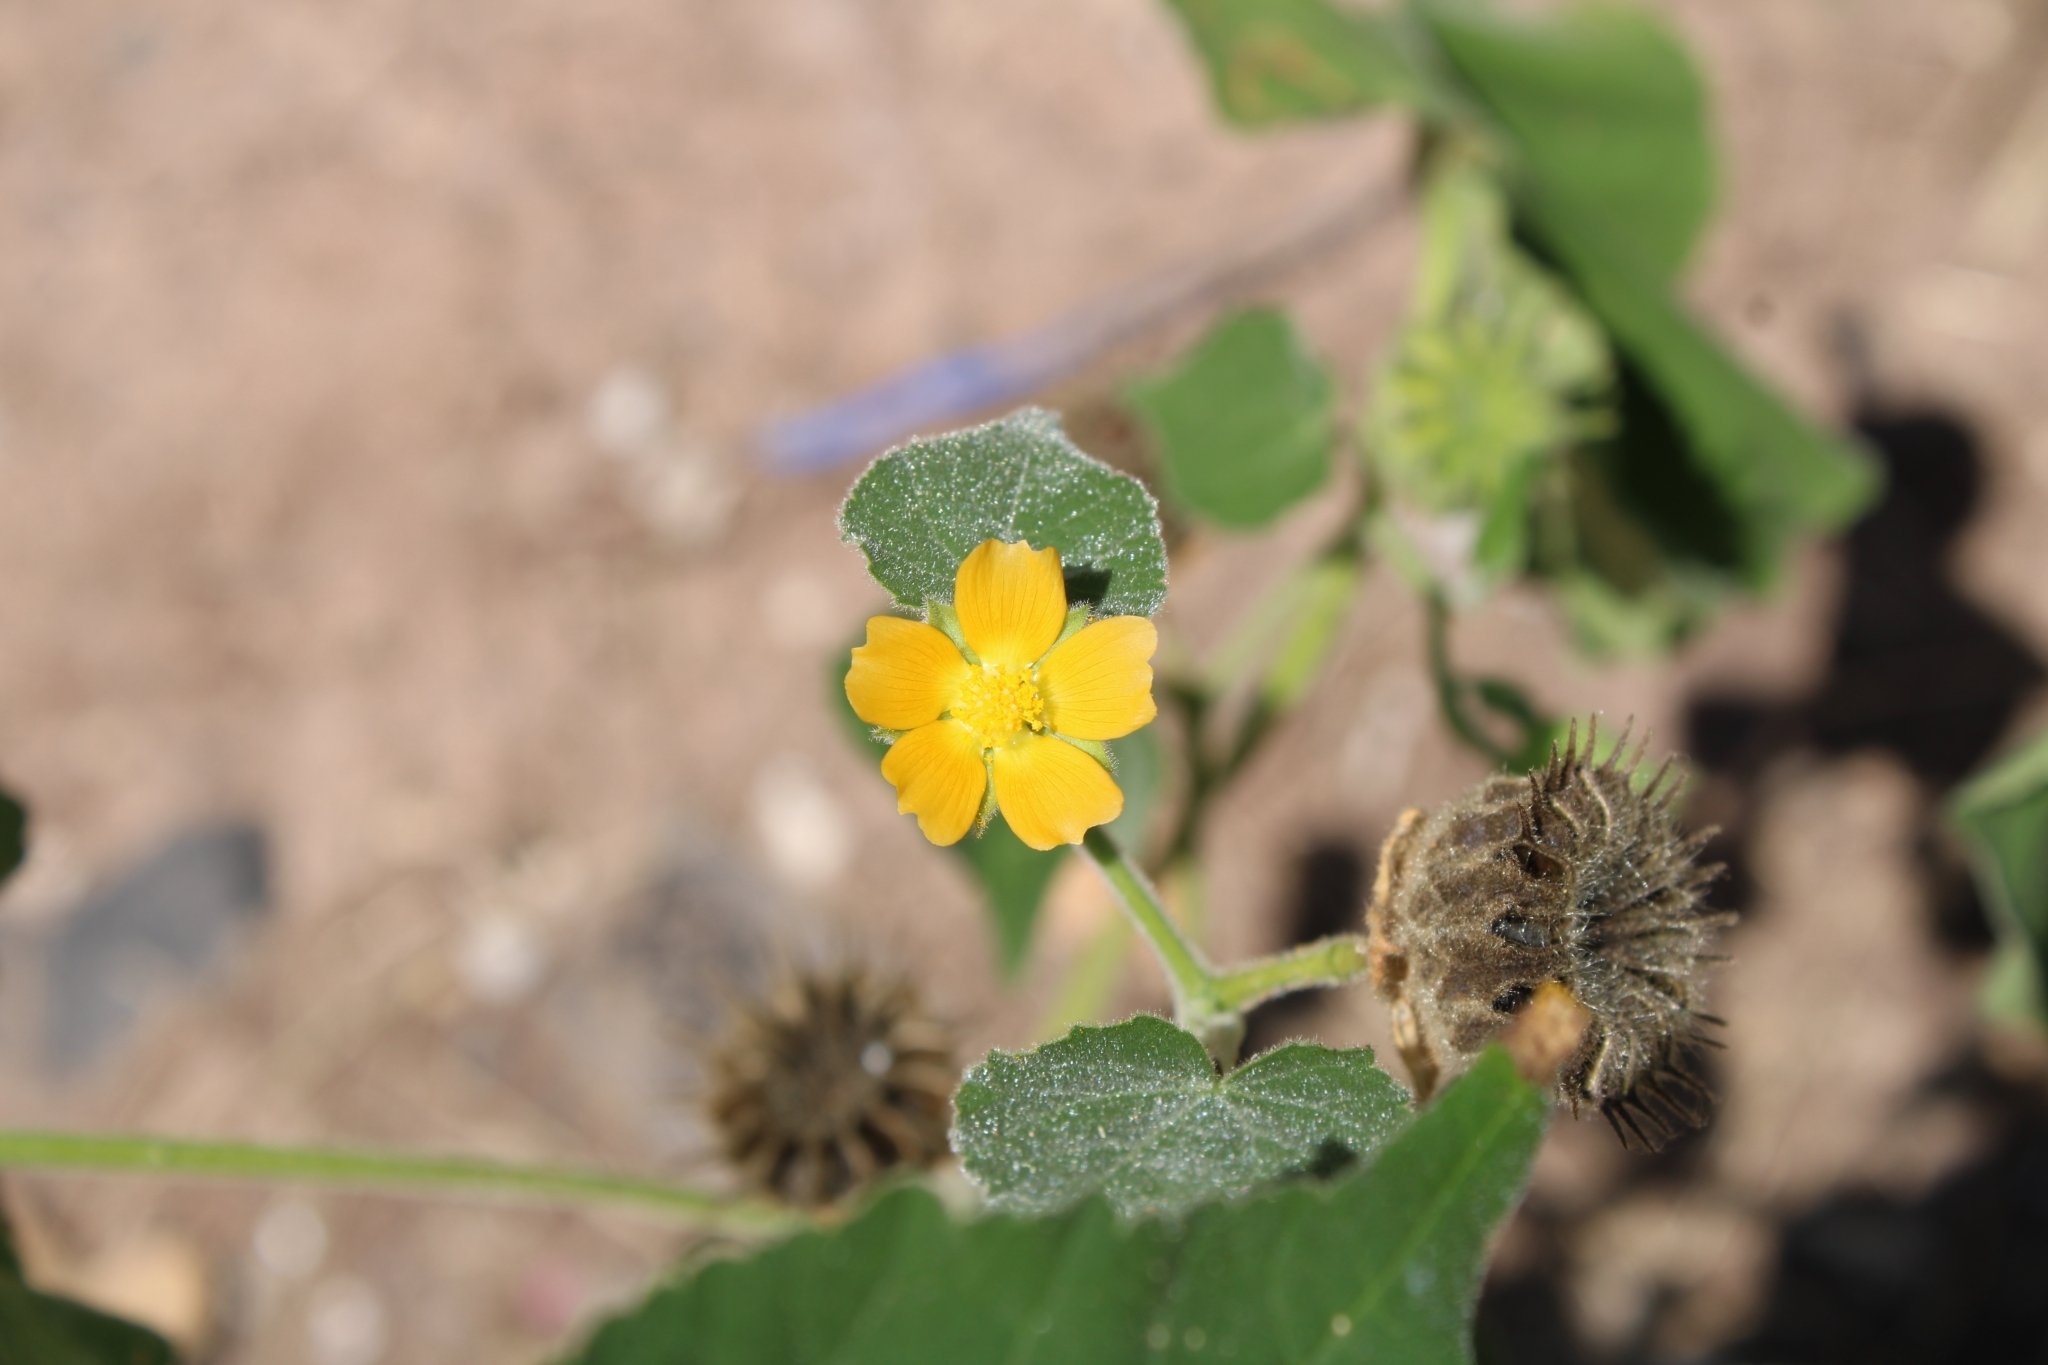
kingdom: Plantae
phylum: Tracheophyta
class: Magnoliopsida
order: Malvales
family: Malvaceae
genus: Abutilon
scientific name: Abutilon theophrasti
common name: Velvetleaf
